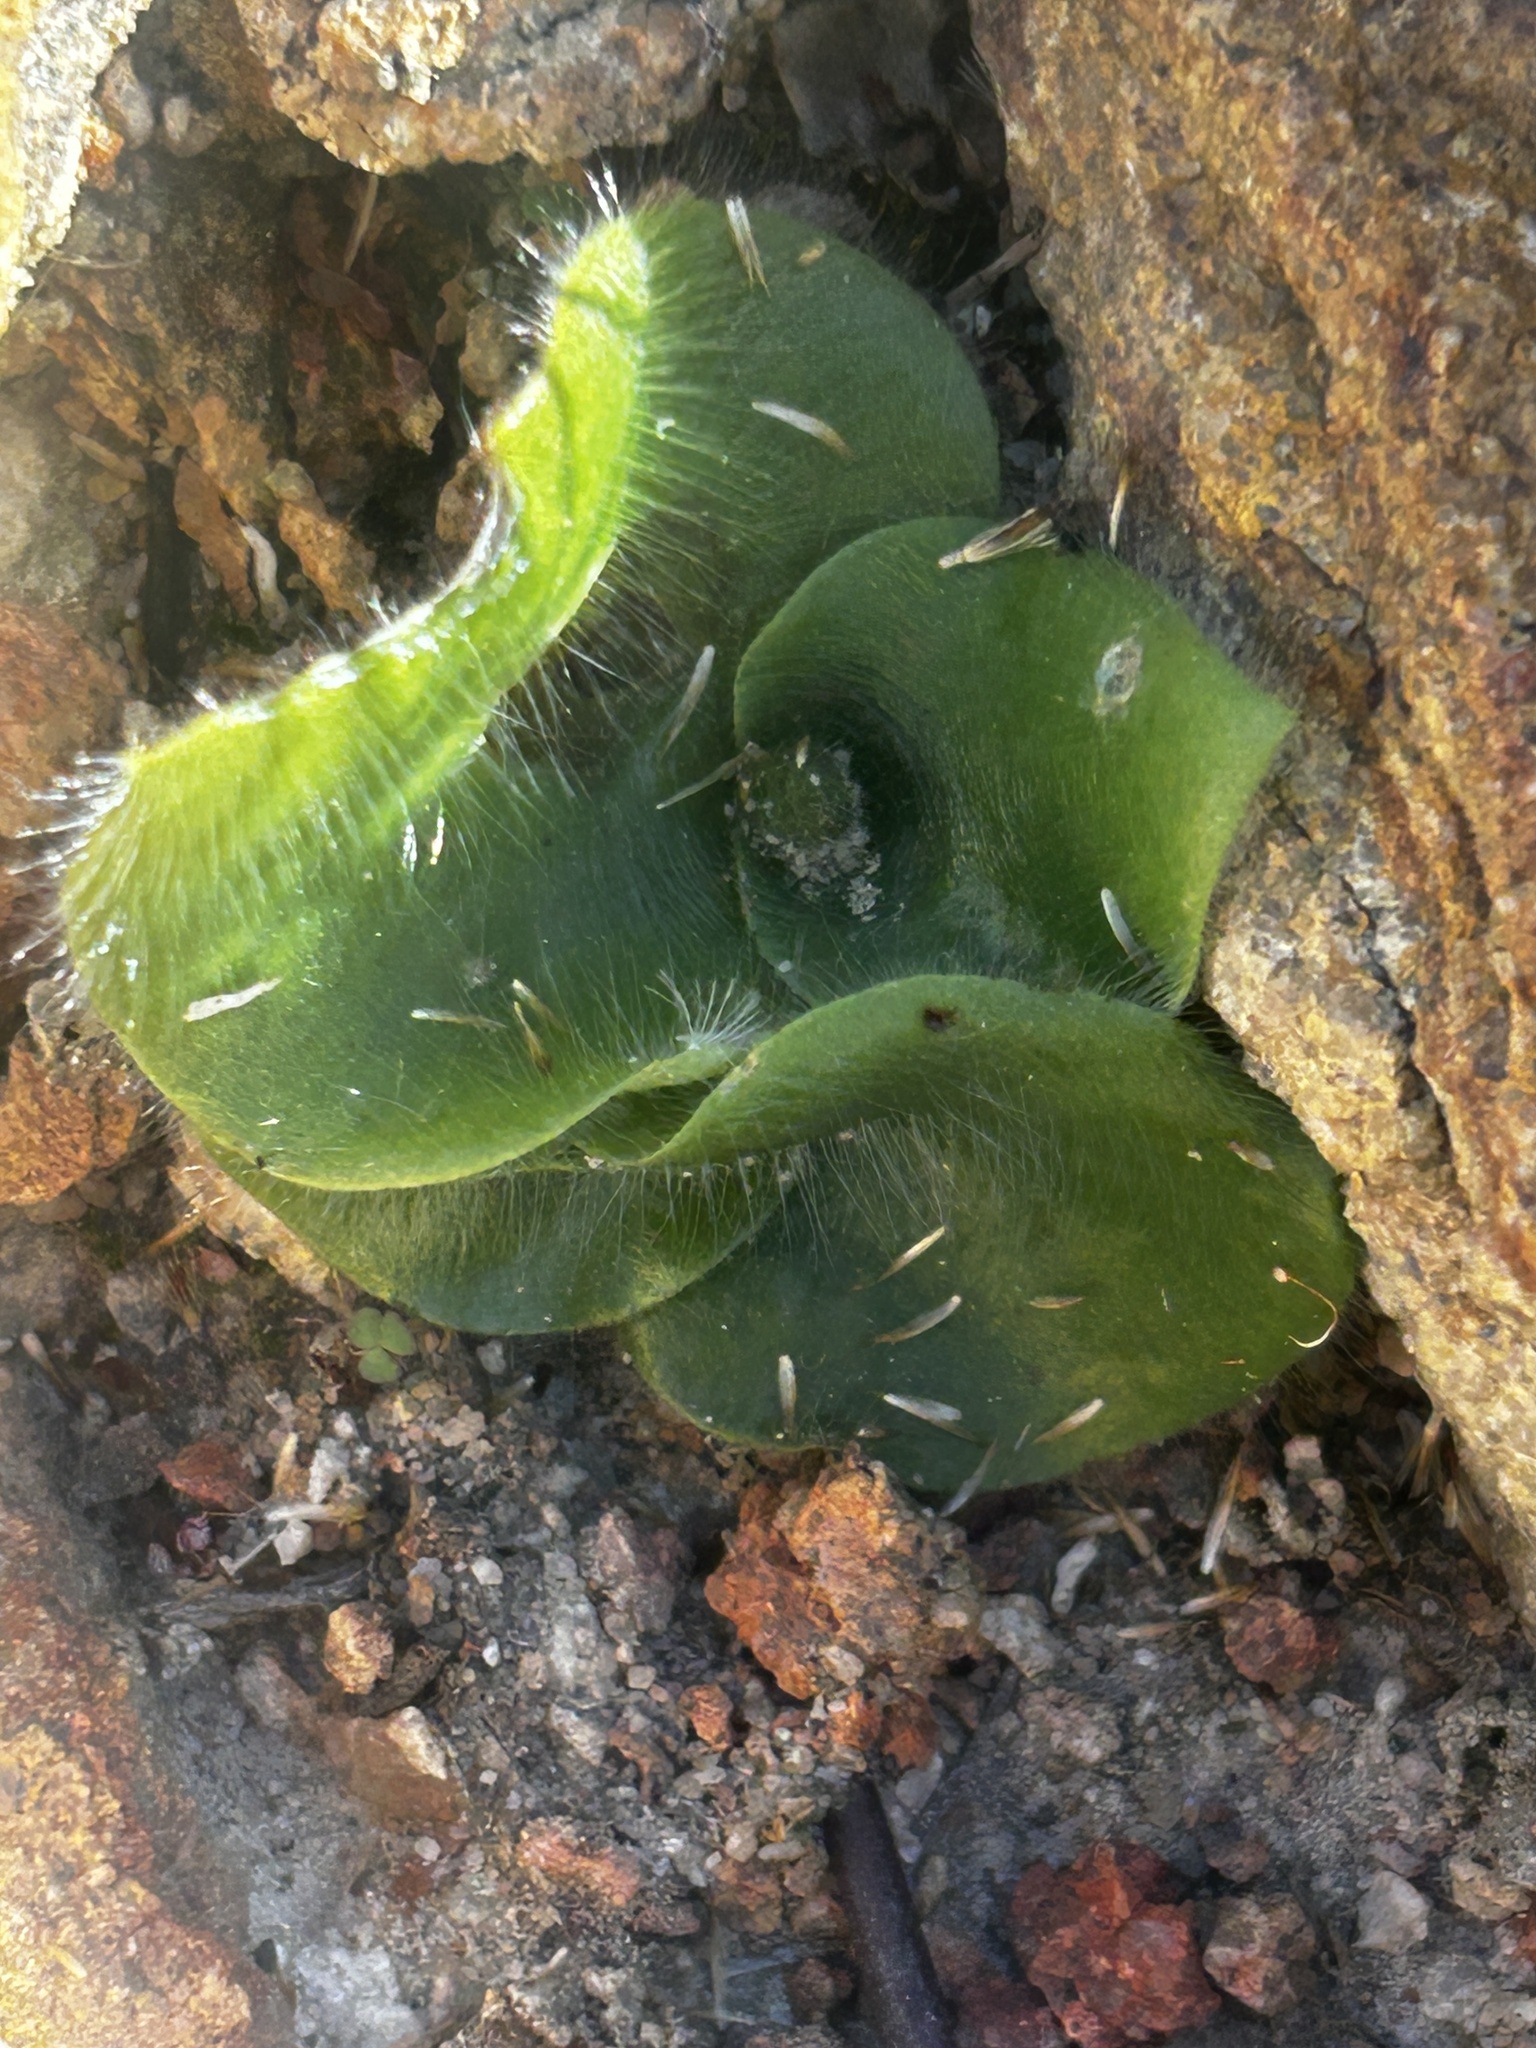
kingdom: Plantae
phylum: Tracheophyta
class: Liliopsida
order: Asparagales
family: Orchidaceae
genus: Holothrix
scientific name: Holothrix villosa
